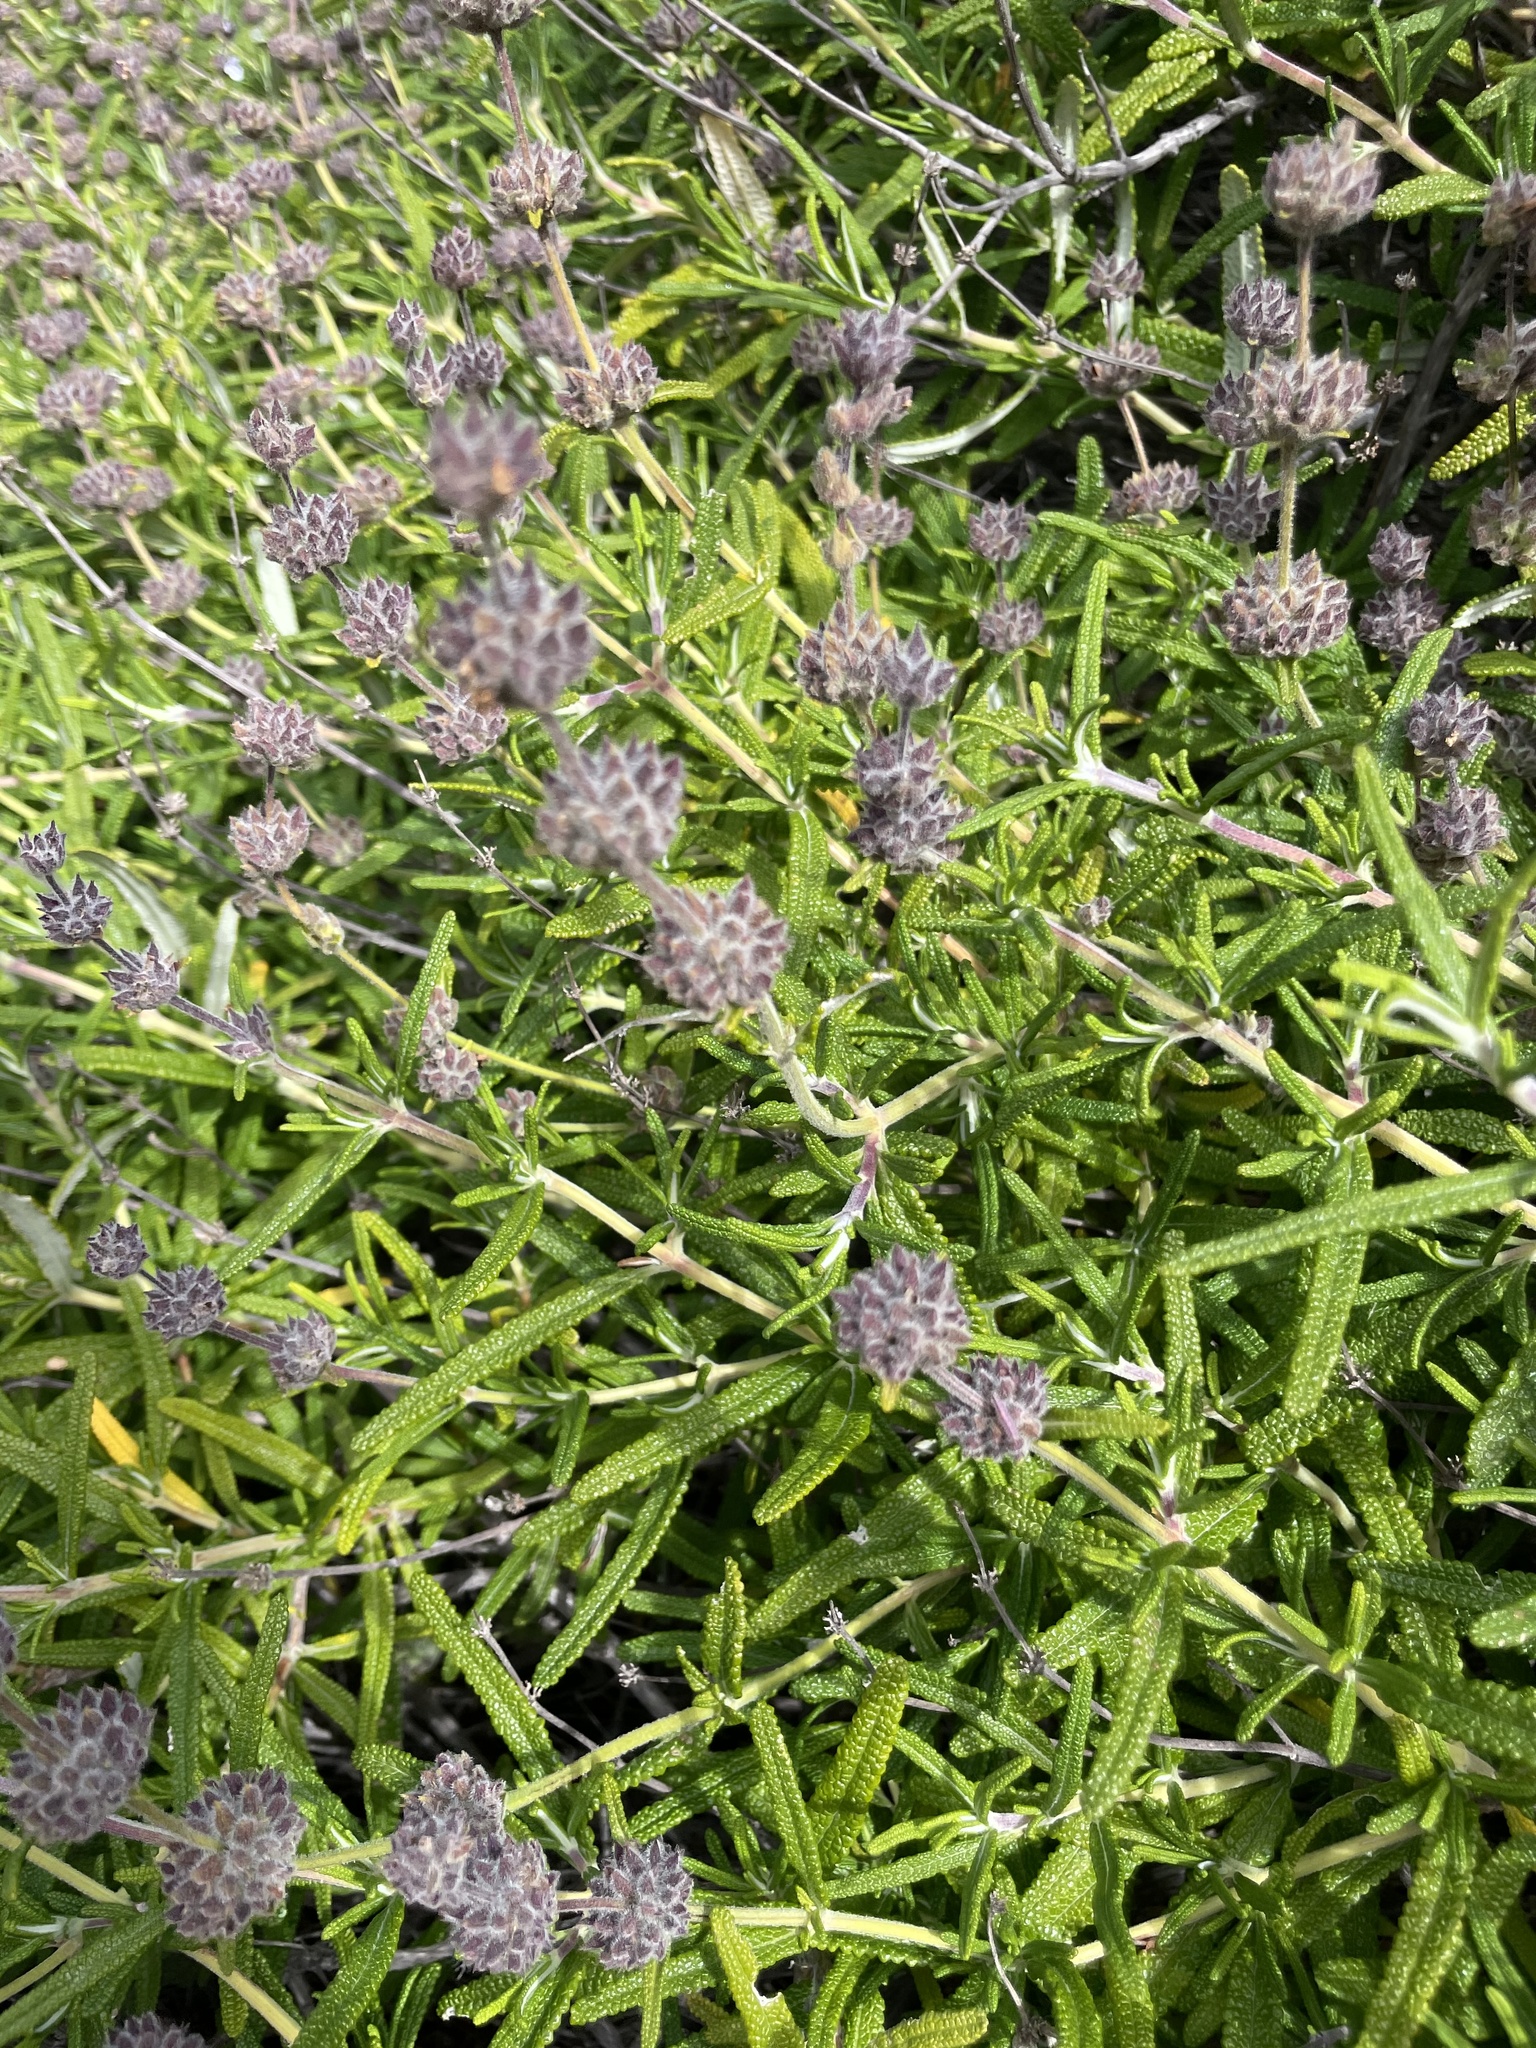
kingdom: Plantae
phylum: Tracheophyta
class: Magnoliopsida
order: Lamiales
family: Lamiaceae
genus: Salvia
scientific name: Salvia brandegeei
